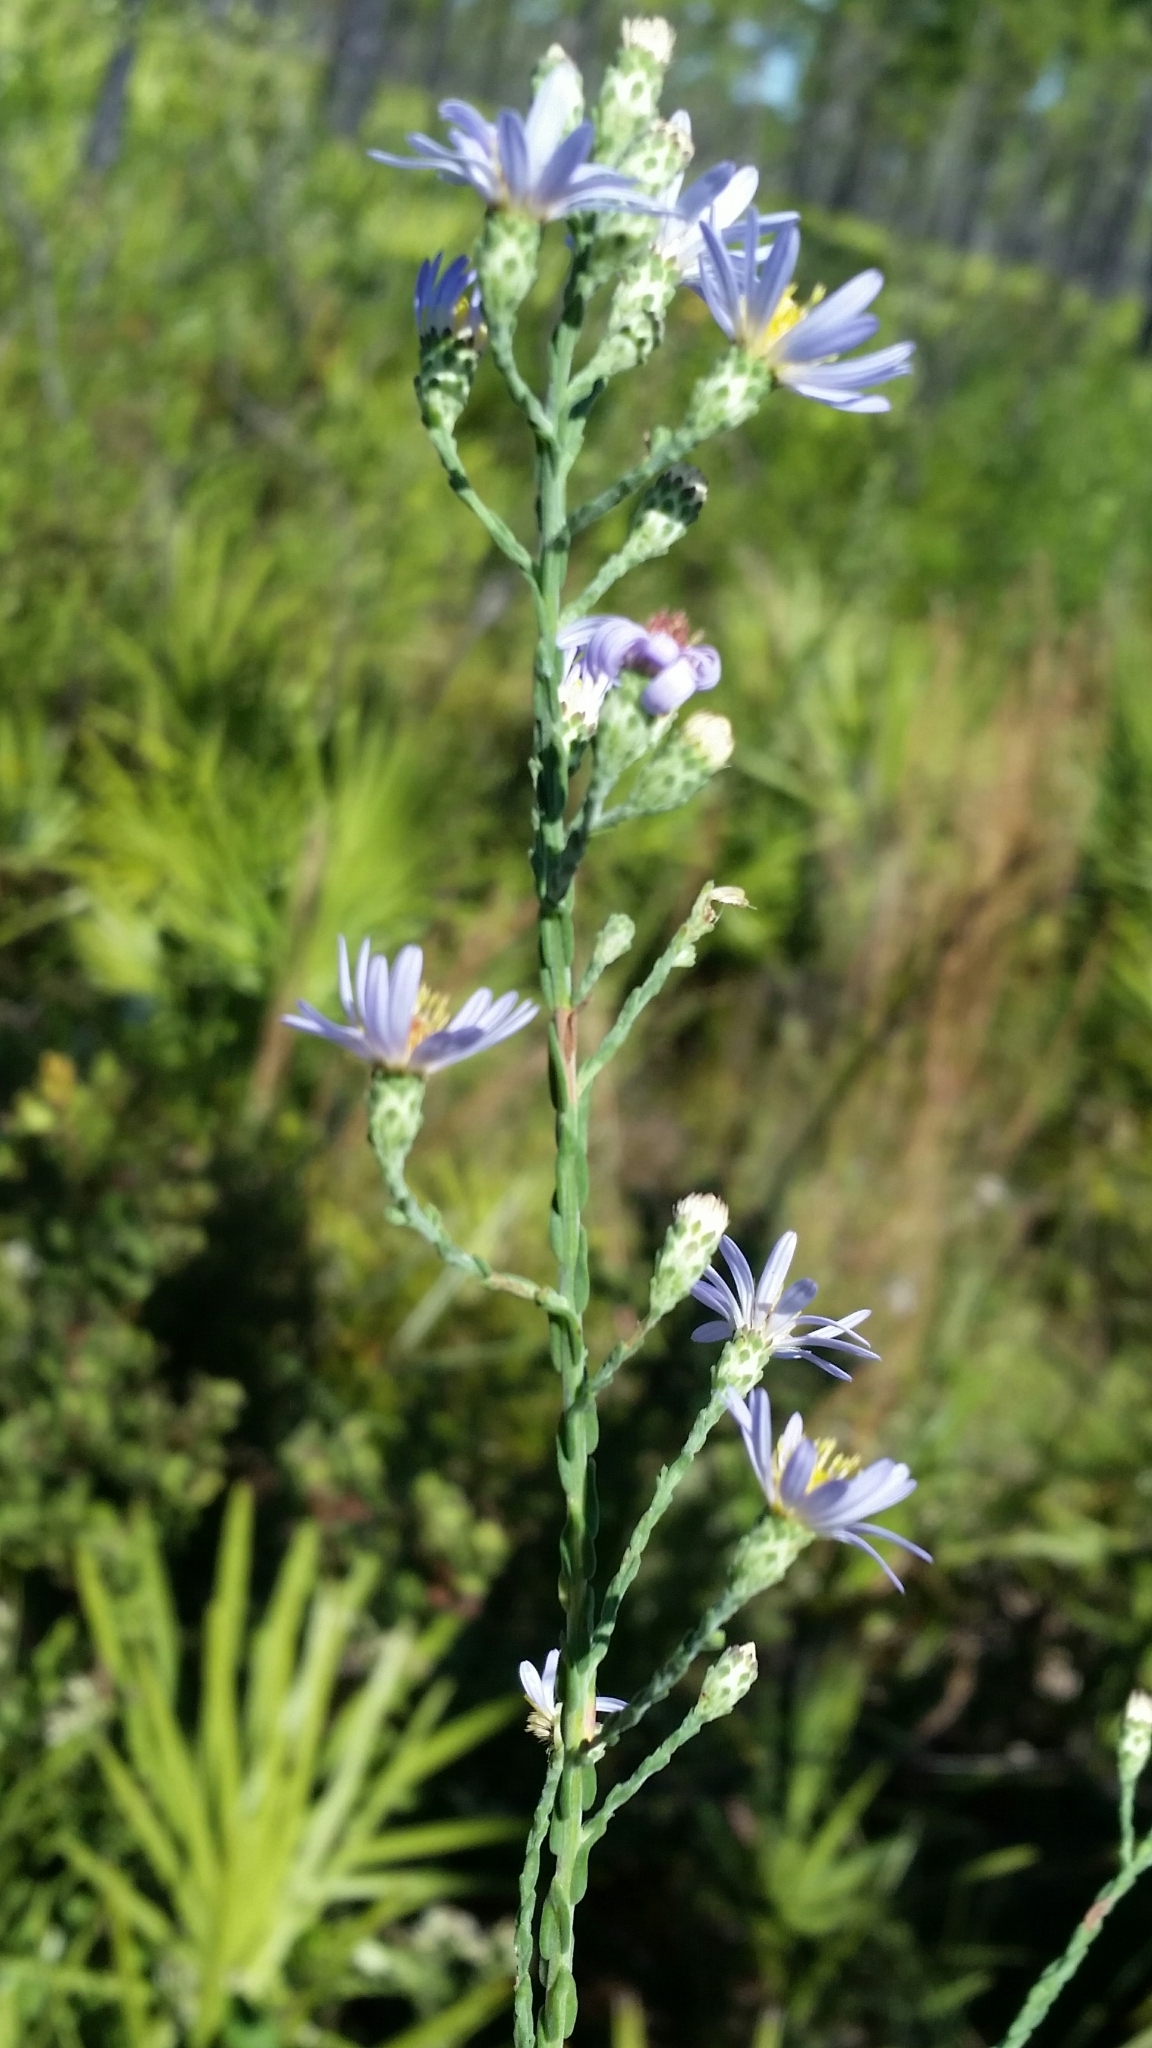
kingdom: Plantae
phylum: Tracheophyta
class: Magnoliopsida
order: Asterales
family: Asteraceae
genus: Symphyotrichum
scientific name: Symphyotrichum adnatum
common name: Scale-leaf aster
